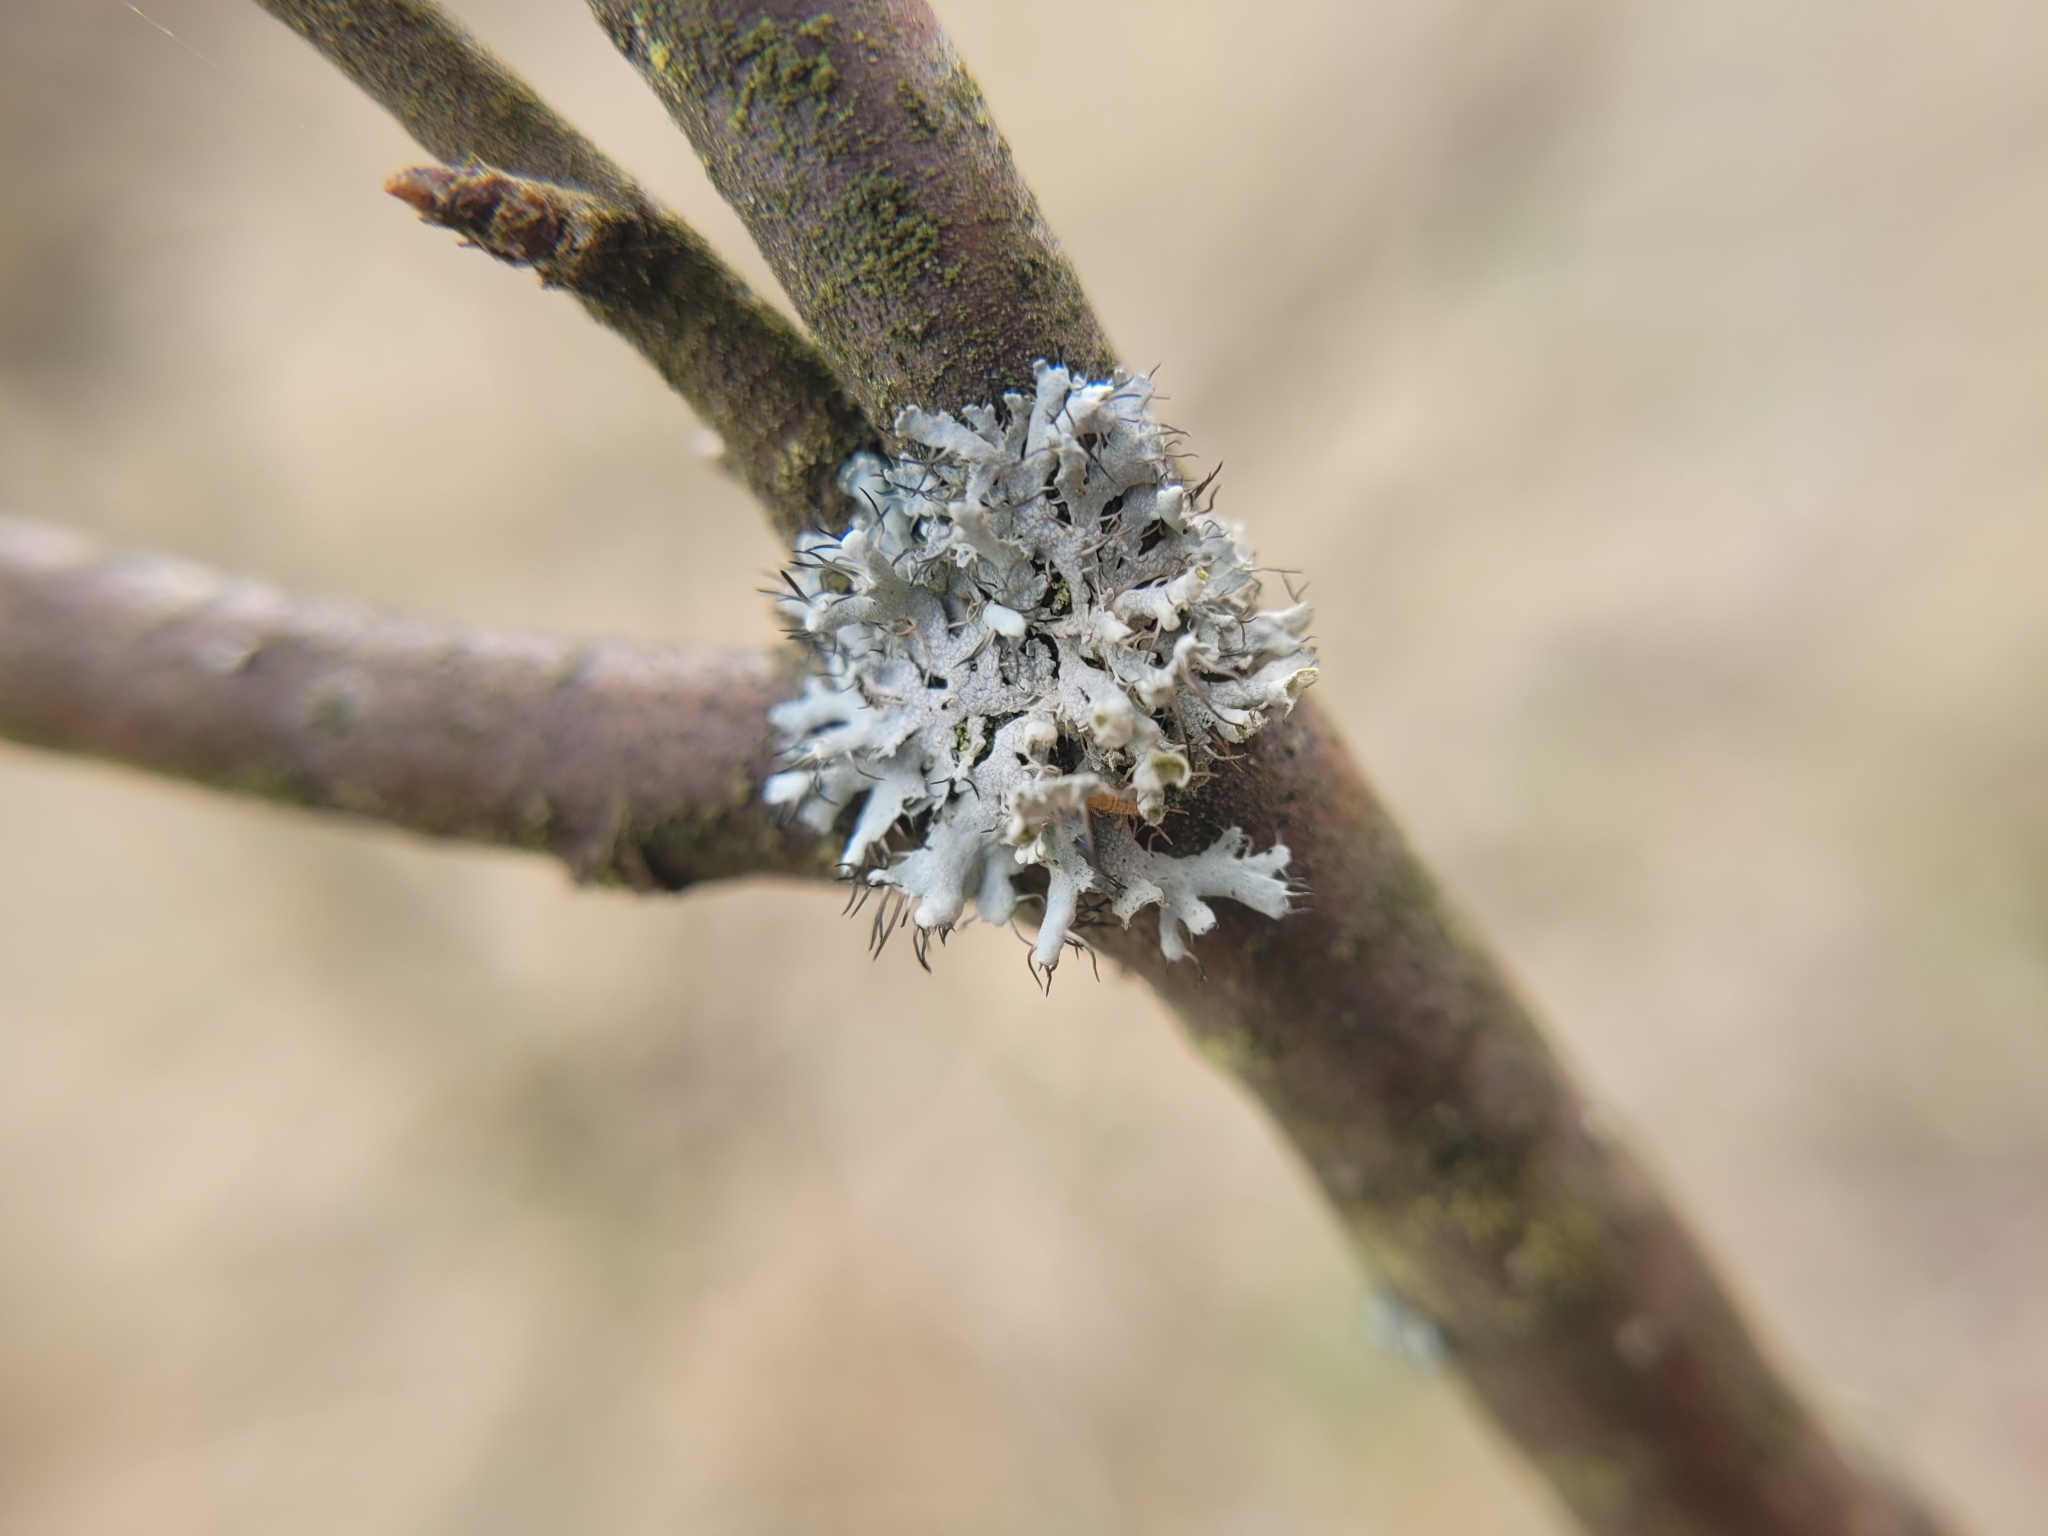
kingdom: Fungi
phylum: Ascomycota
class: Lecanoromycetes
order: Caliciales
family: Physciaceae
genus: Physcia
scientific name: Physcia adscendens
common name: Hooded rosette lichen
